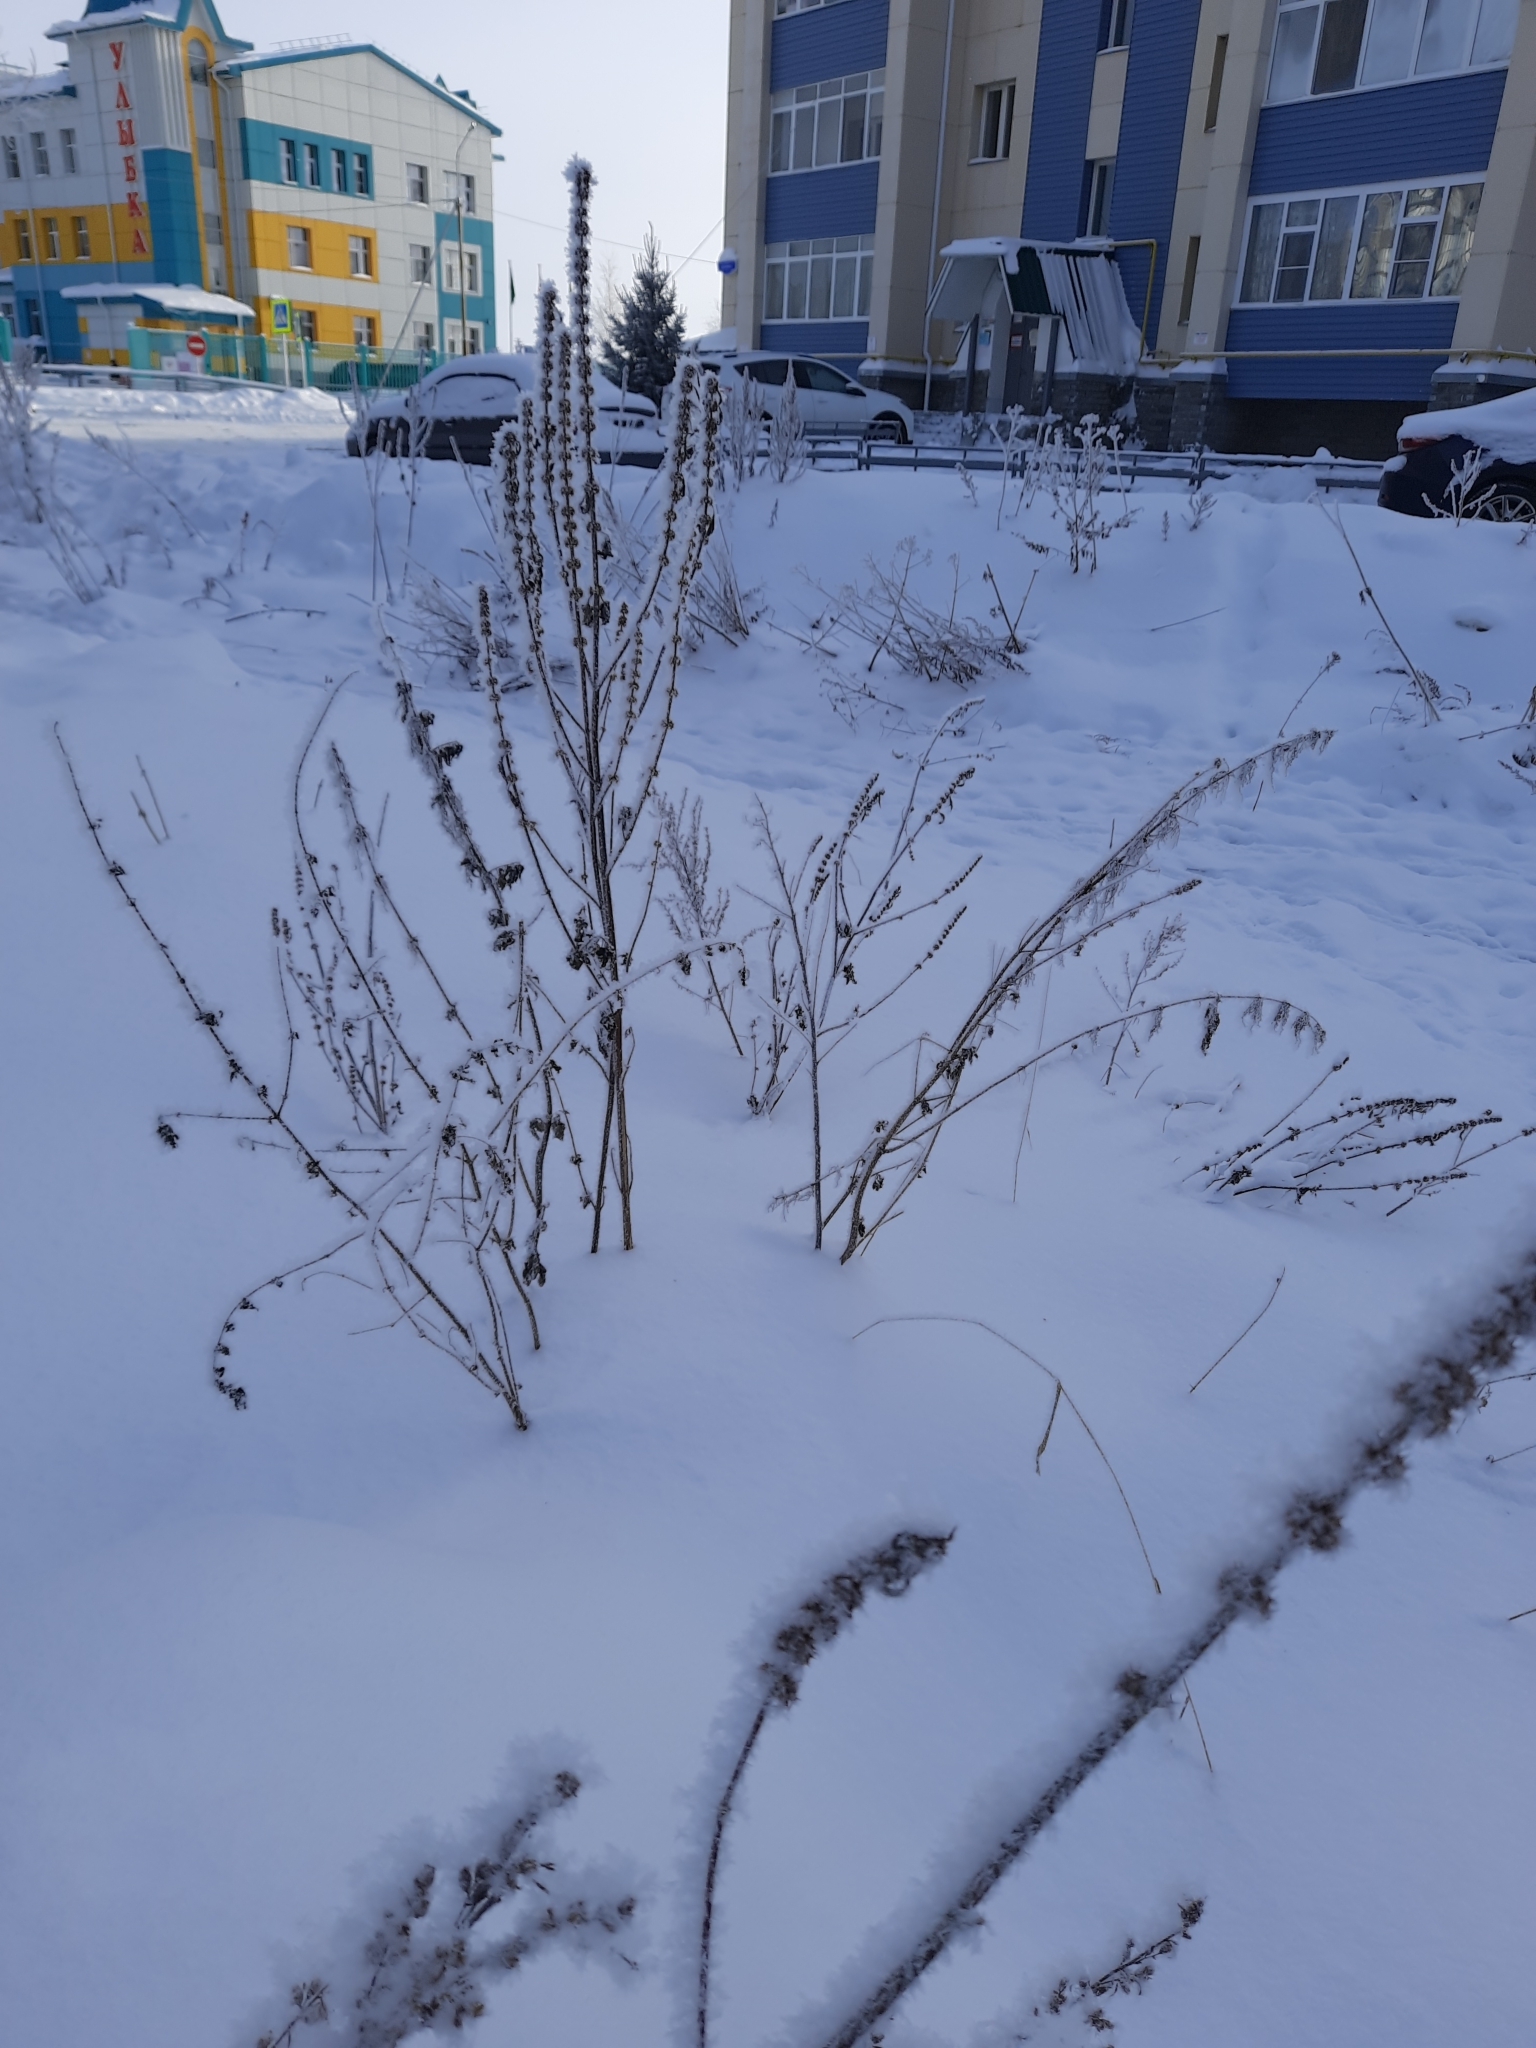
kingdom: Plantae
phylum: Tracheophyta
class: Magnoliopsida
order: Lamiales
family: Lamiaceae
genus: Leonurus
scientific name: Leonurus quinquelobatus
